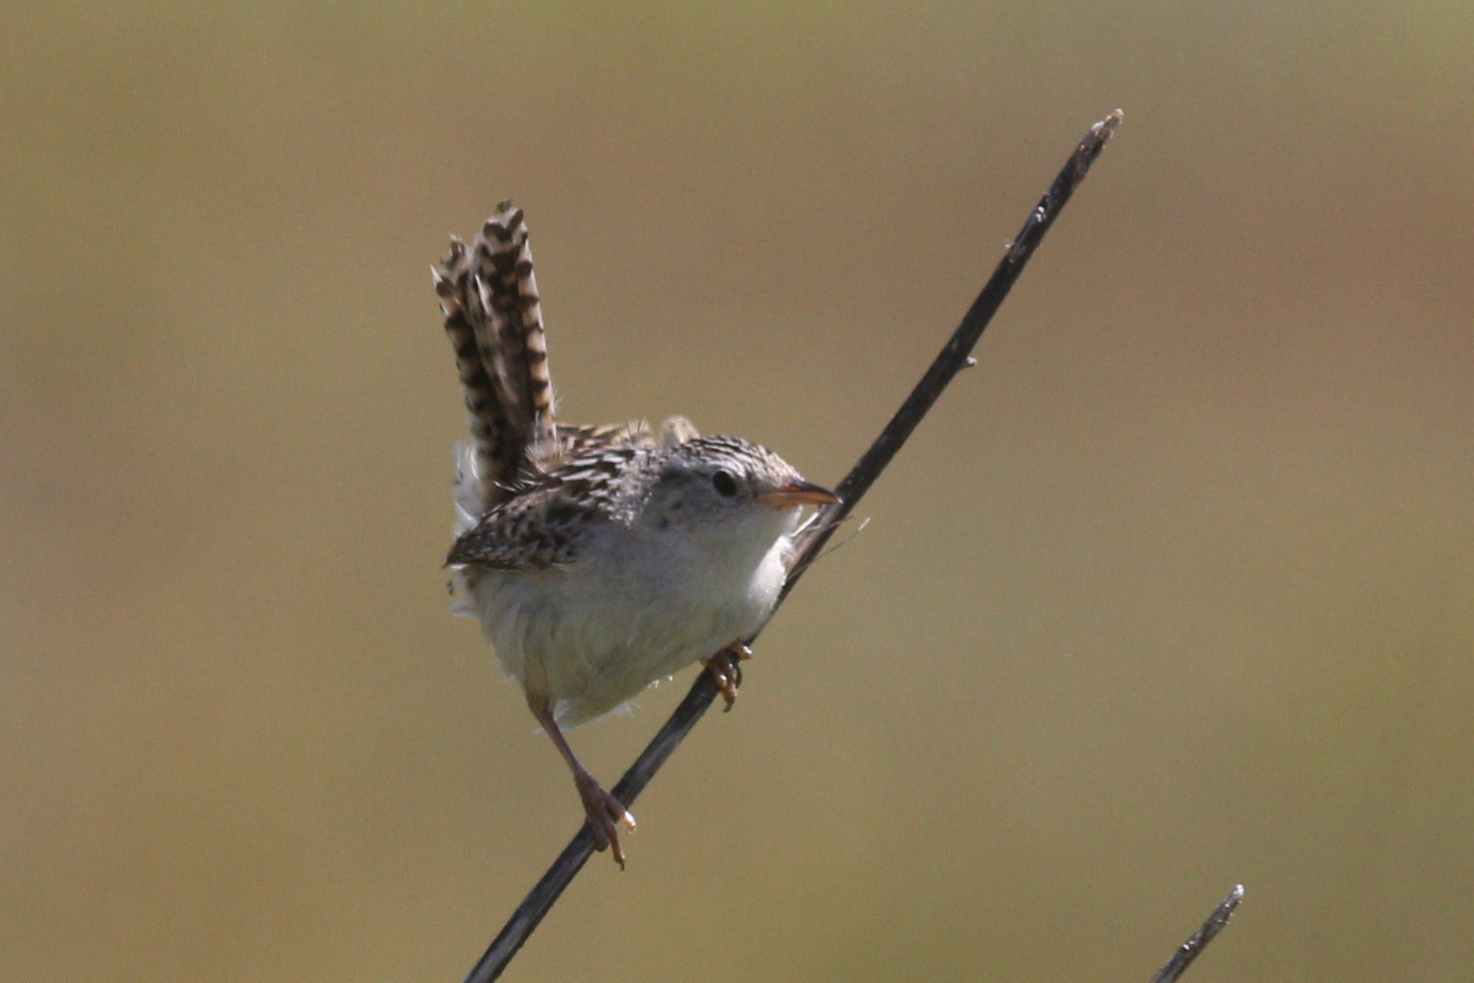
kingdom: Animalia
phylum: Chordata
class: Aves
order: Passeriformes
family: Troglodytidae
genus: Cistothorus
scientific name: Cistothorus platensis
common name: Sedge wren
